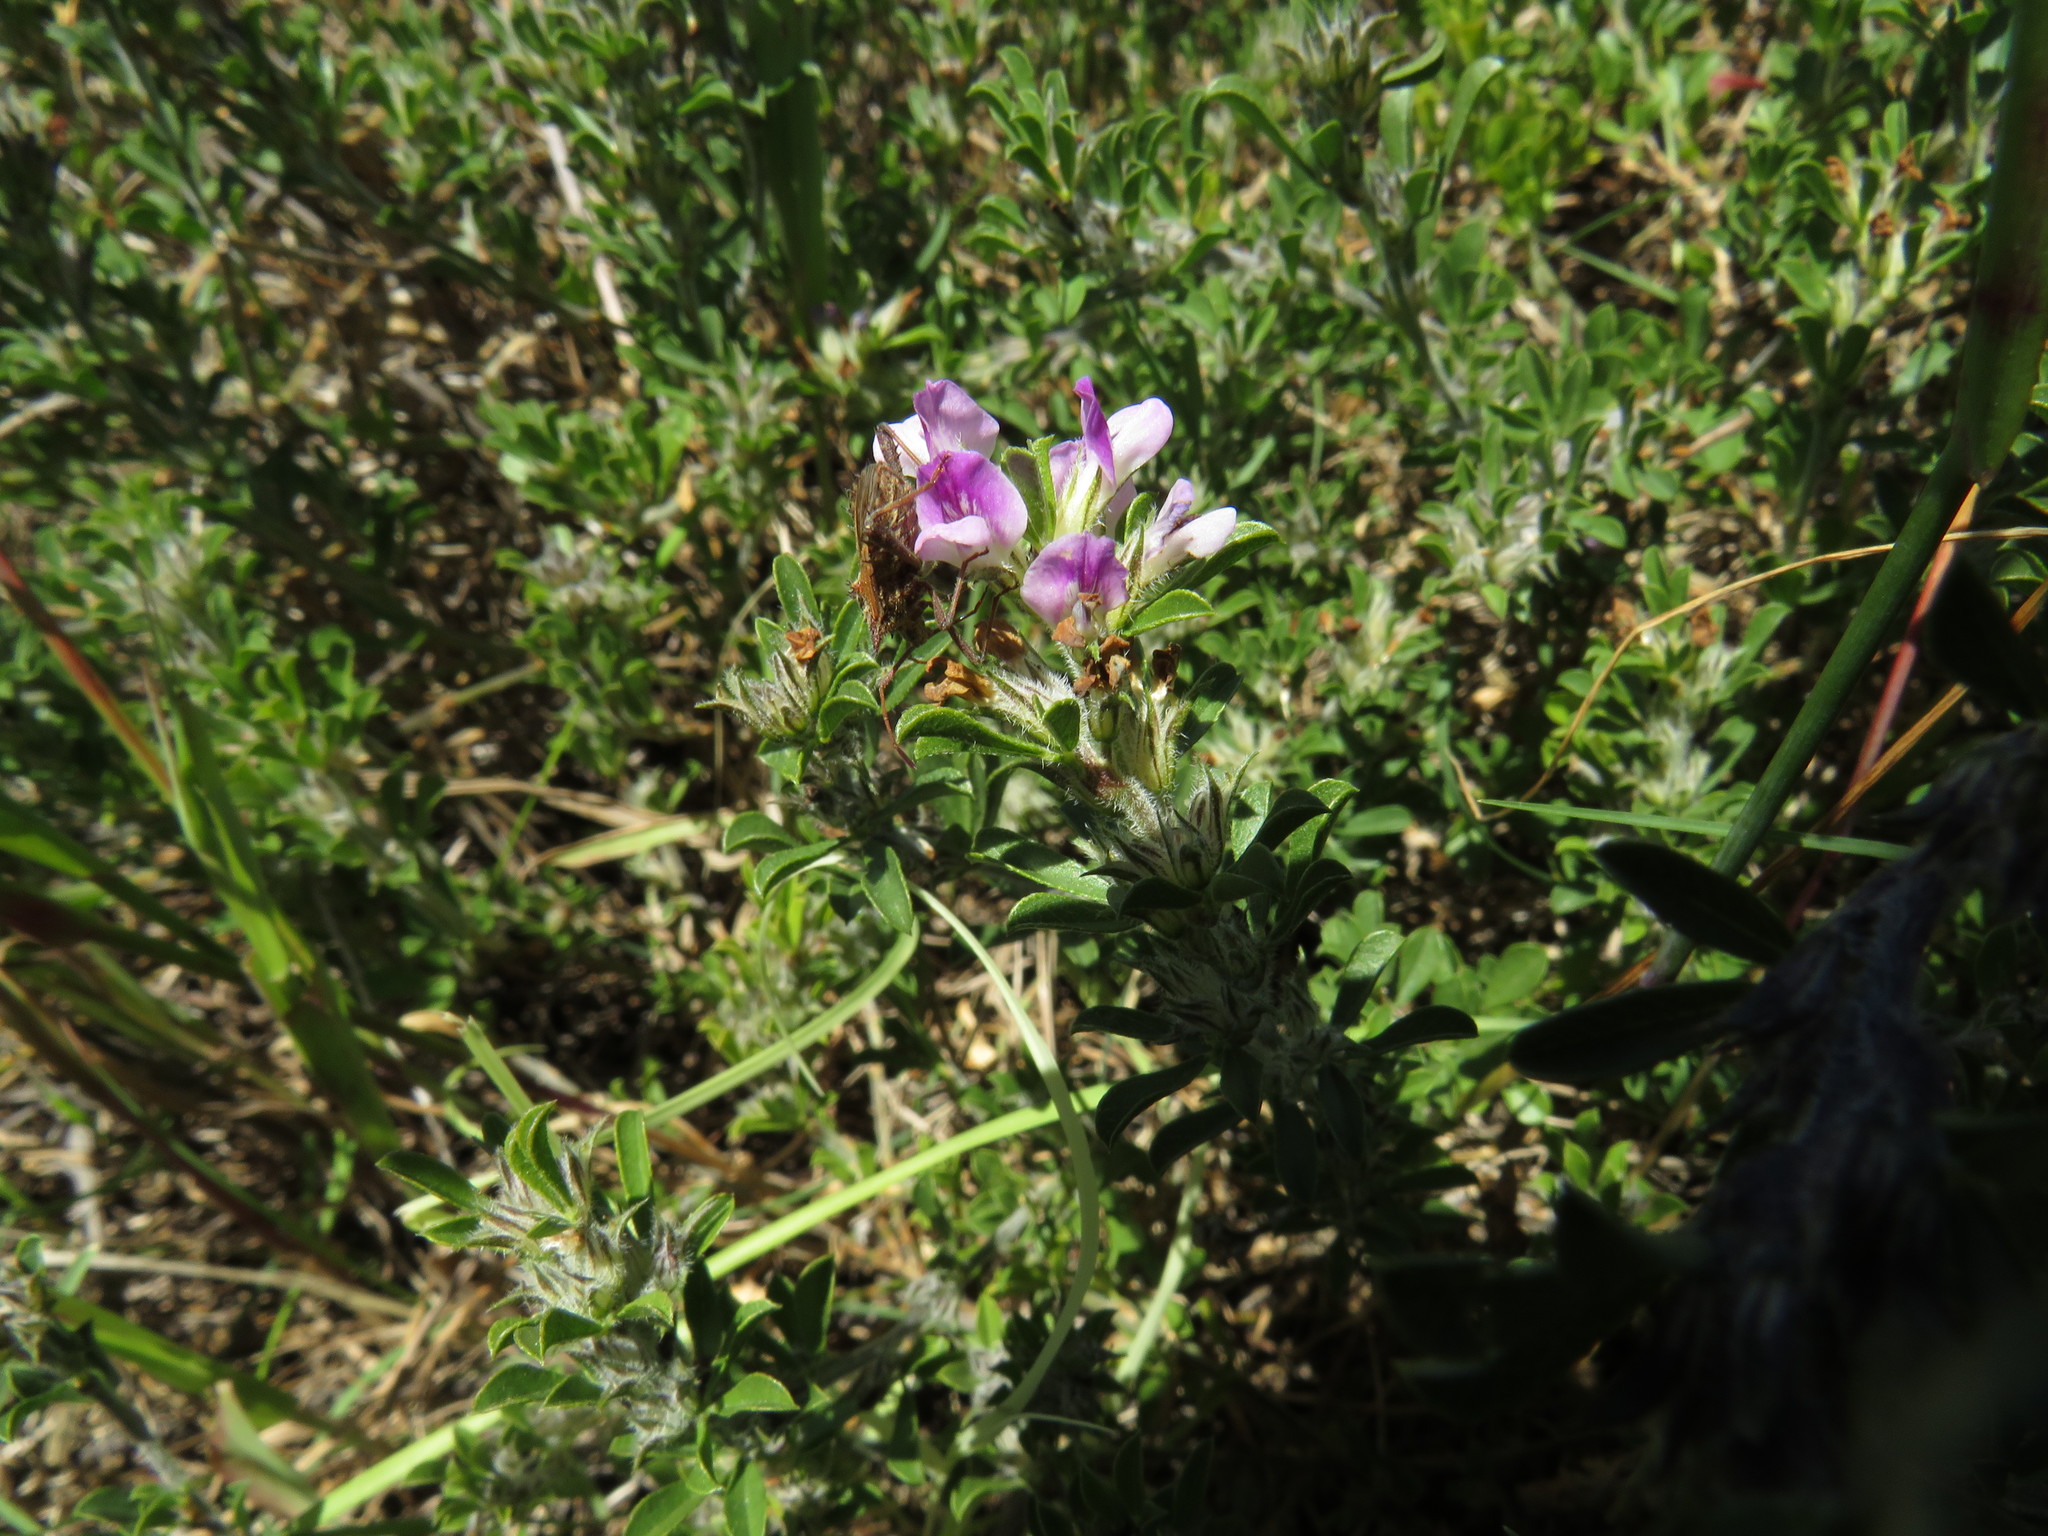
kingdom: Plantae
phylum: Tracheophyta
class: Magnoliopsida
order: Fabales
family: Fabaceae
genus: Psoralea
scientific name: Psoralea
